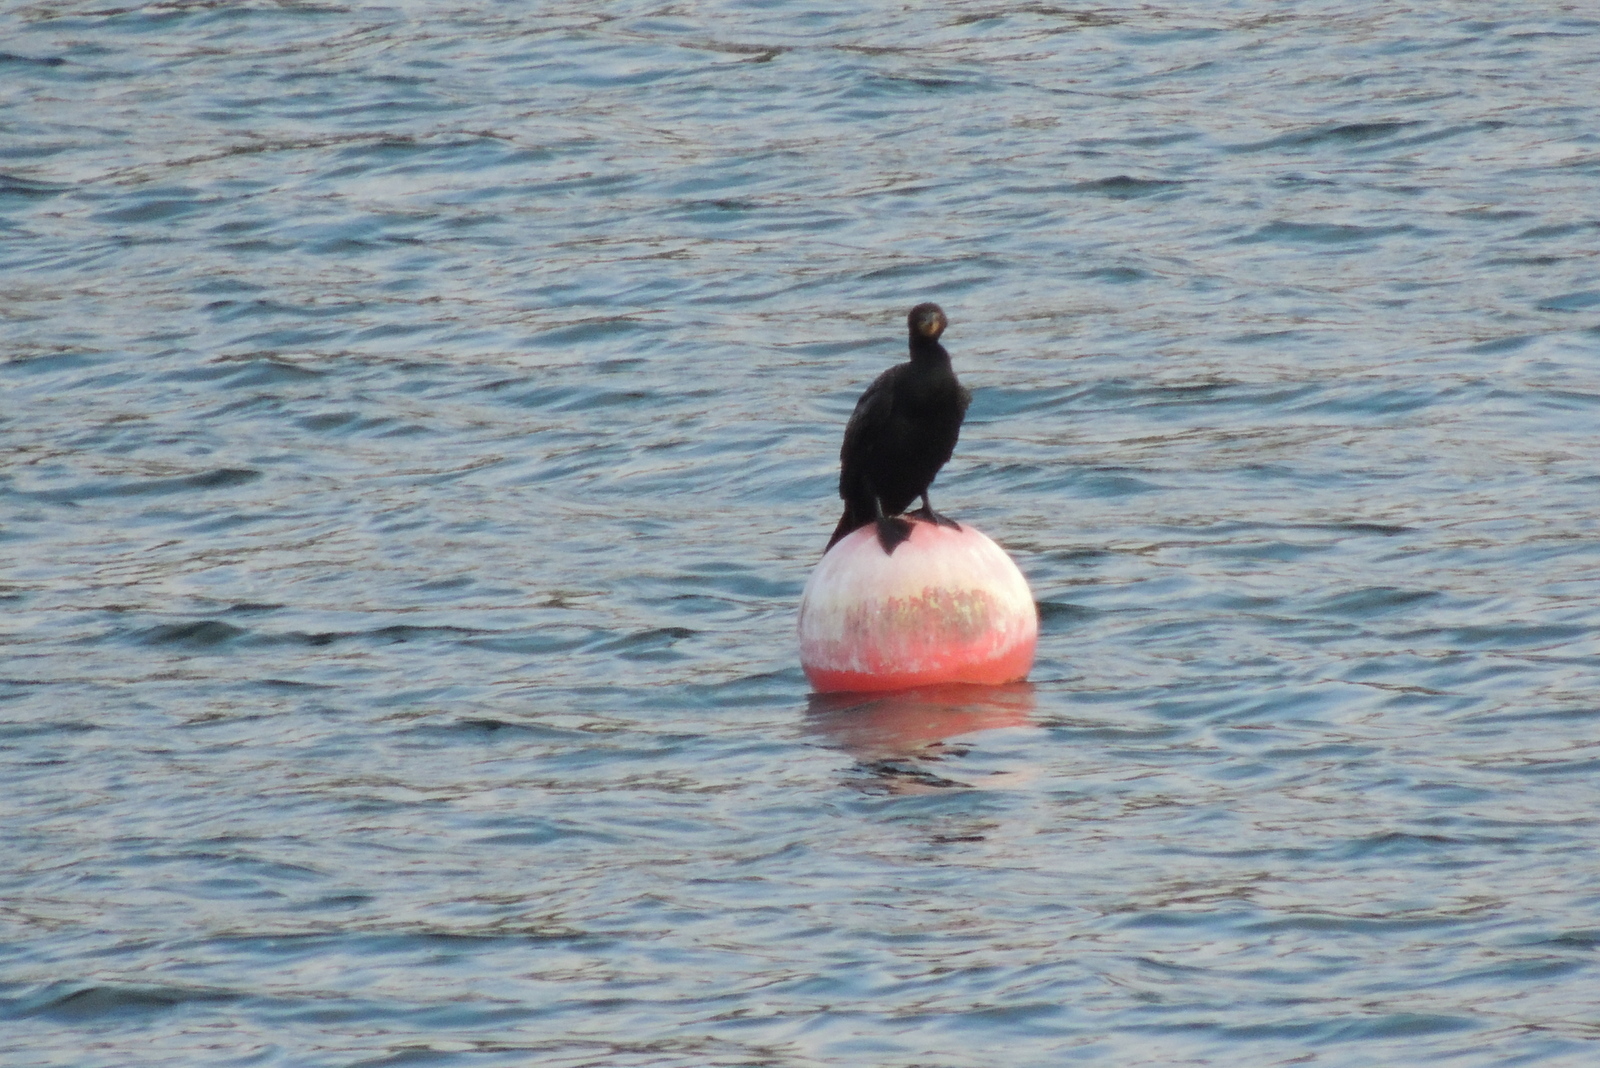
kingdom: Animalia
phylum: Chordata
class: Aves
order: Suliformes
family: Phalacrocoracidae
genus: Phalacrocorax
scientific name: Phalacrocorax auritus
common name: Double-crested cormorant
